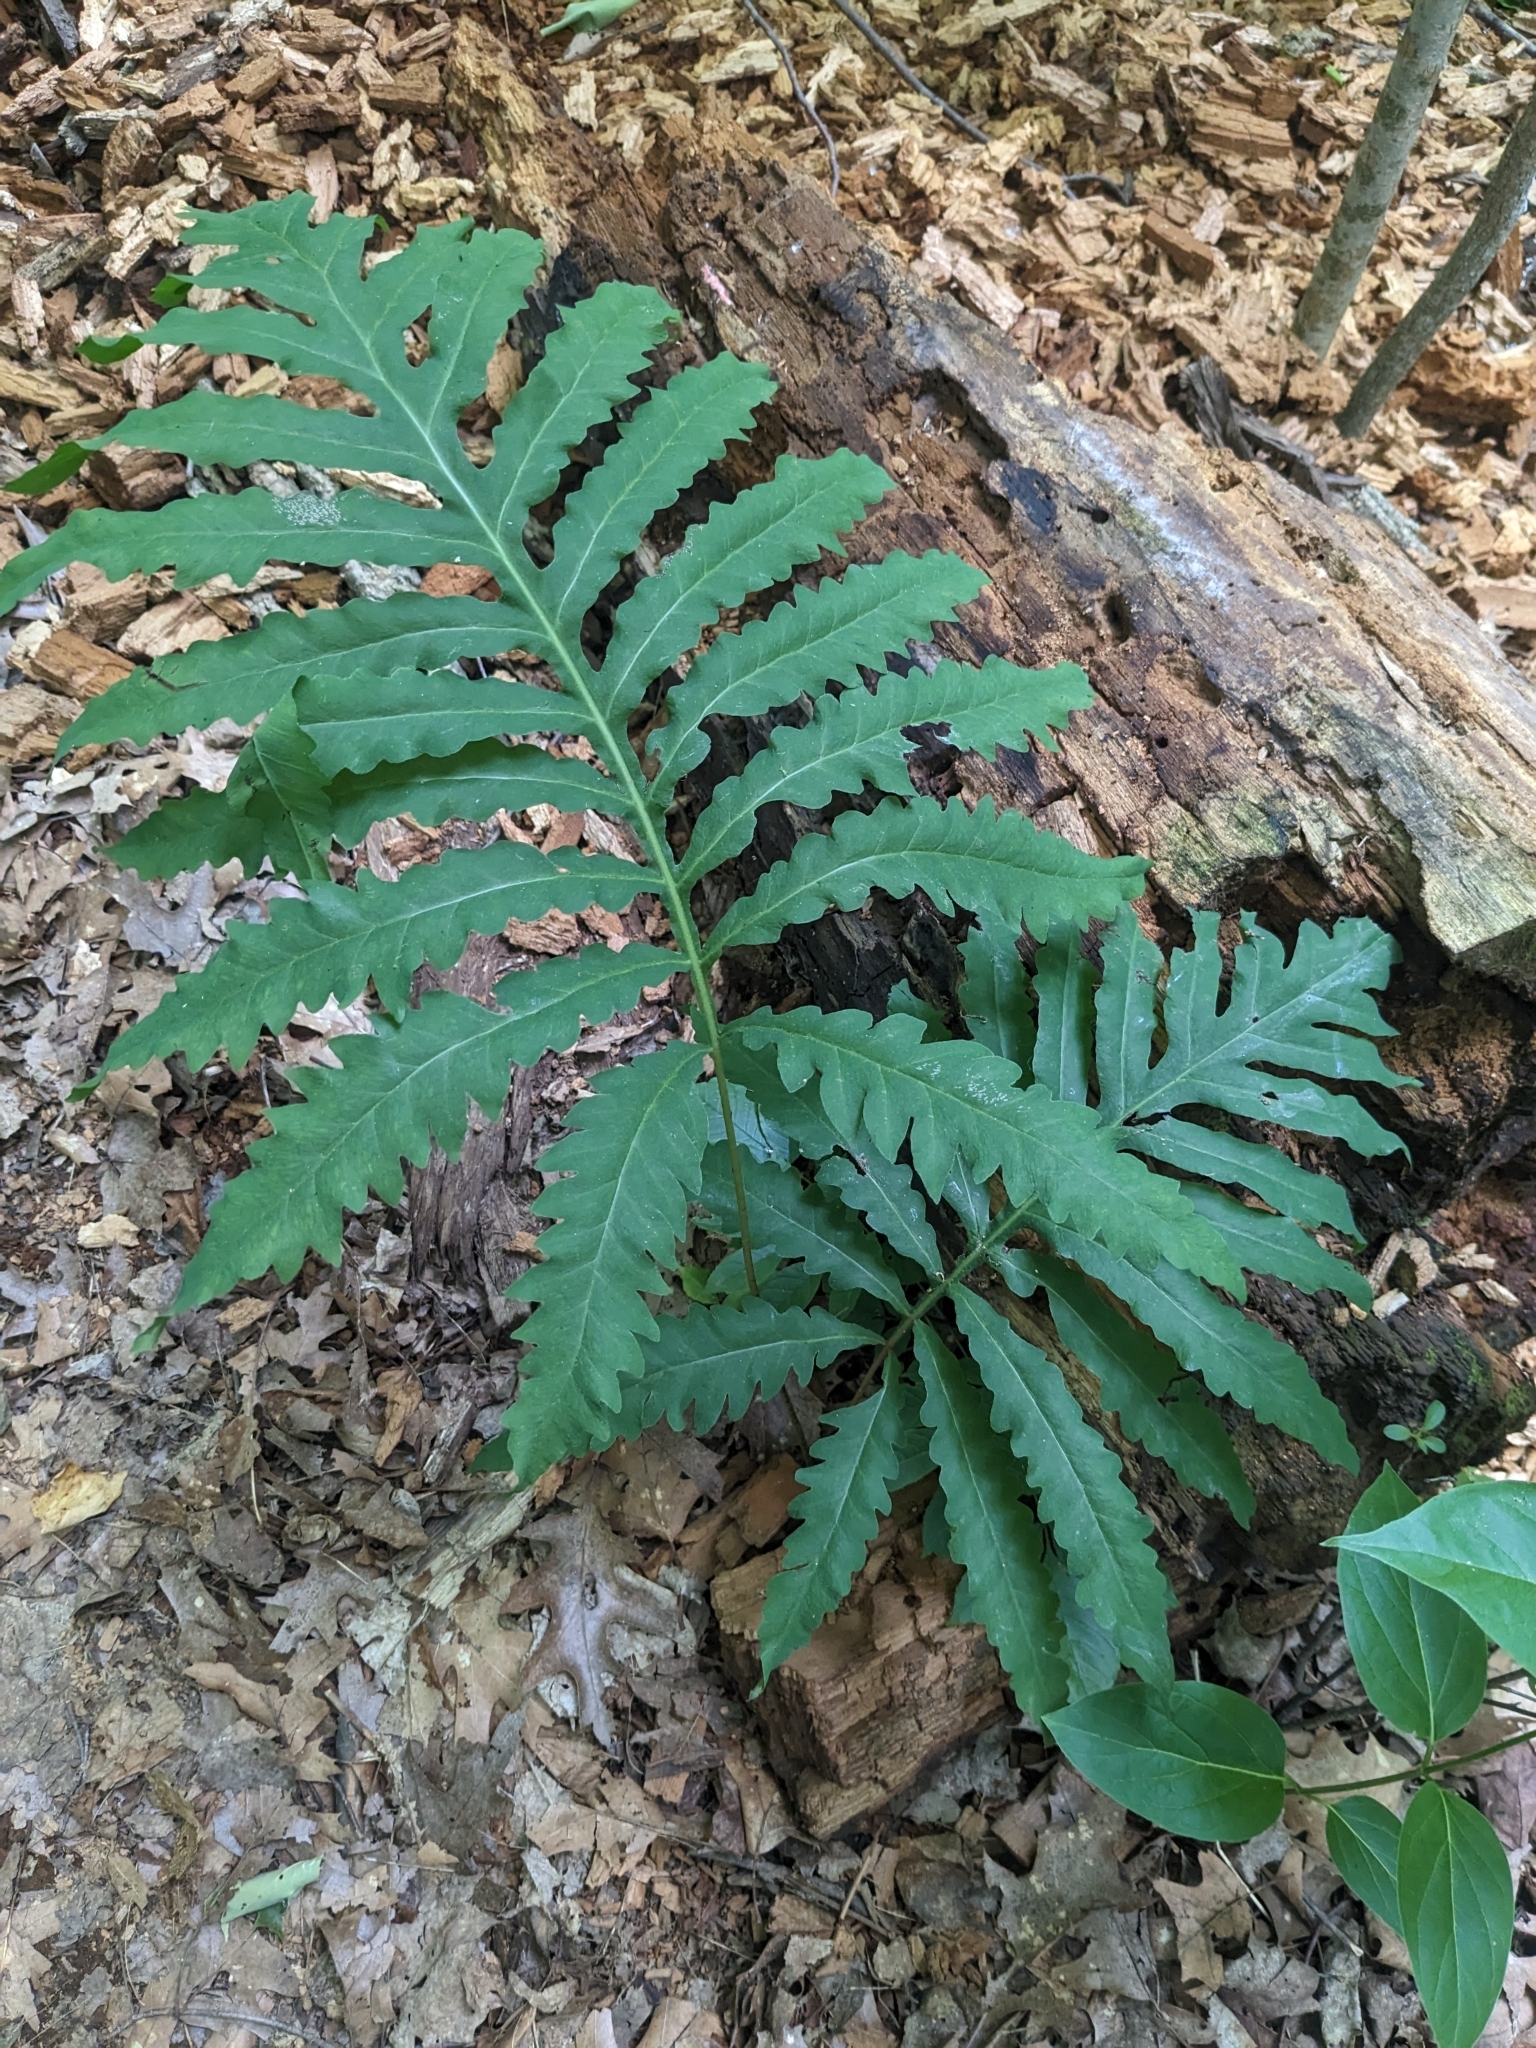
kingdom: Plantae
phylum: Tracheophyta
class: Polypodiopsida
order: Polypodiales
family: Onocleaceae
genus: Onoclea
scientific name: Onoclea sensibilis
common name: Sensitive fern
